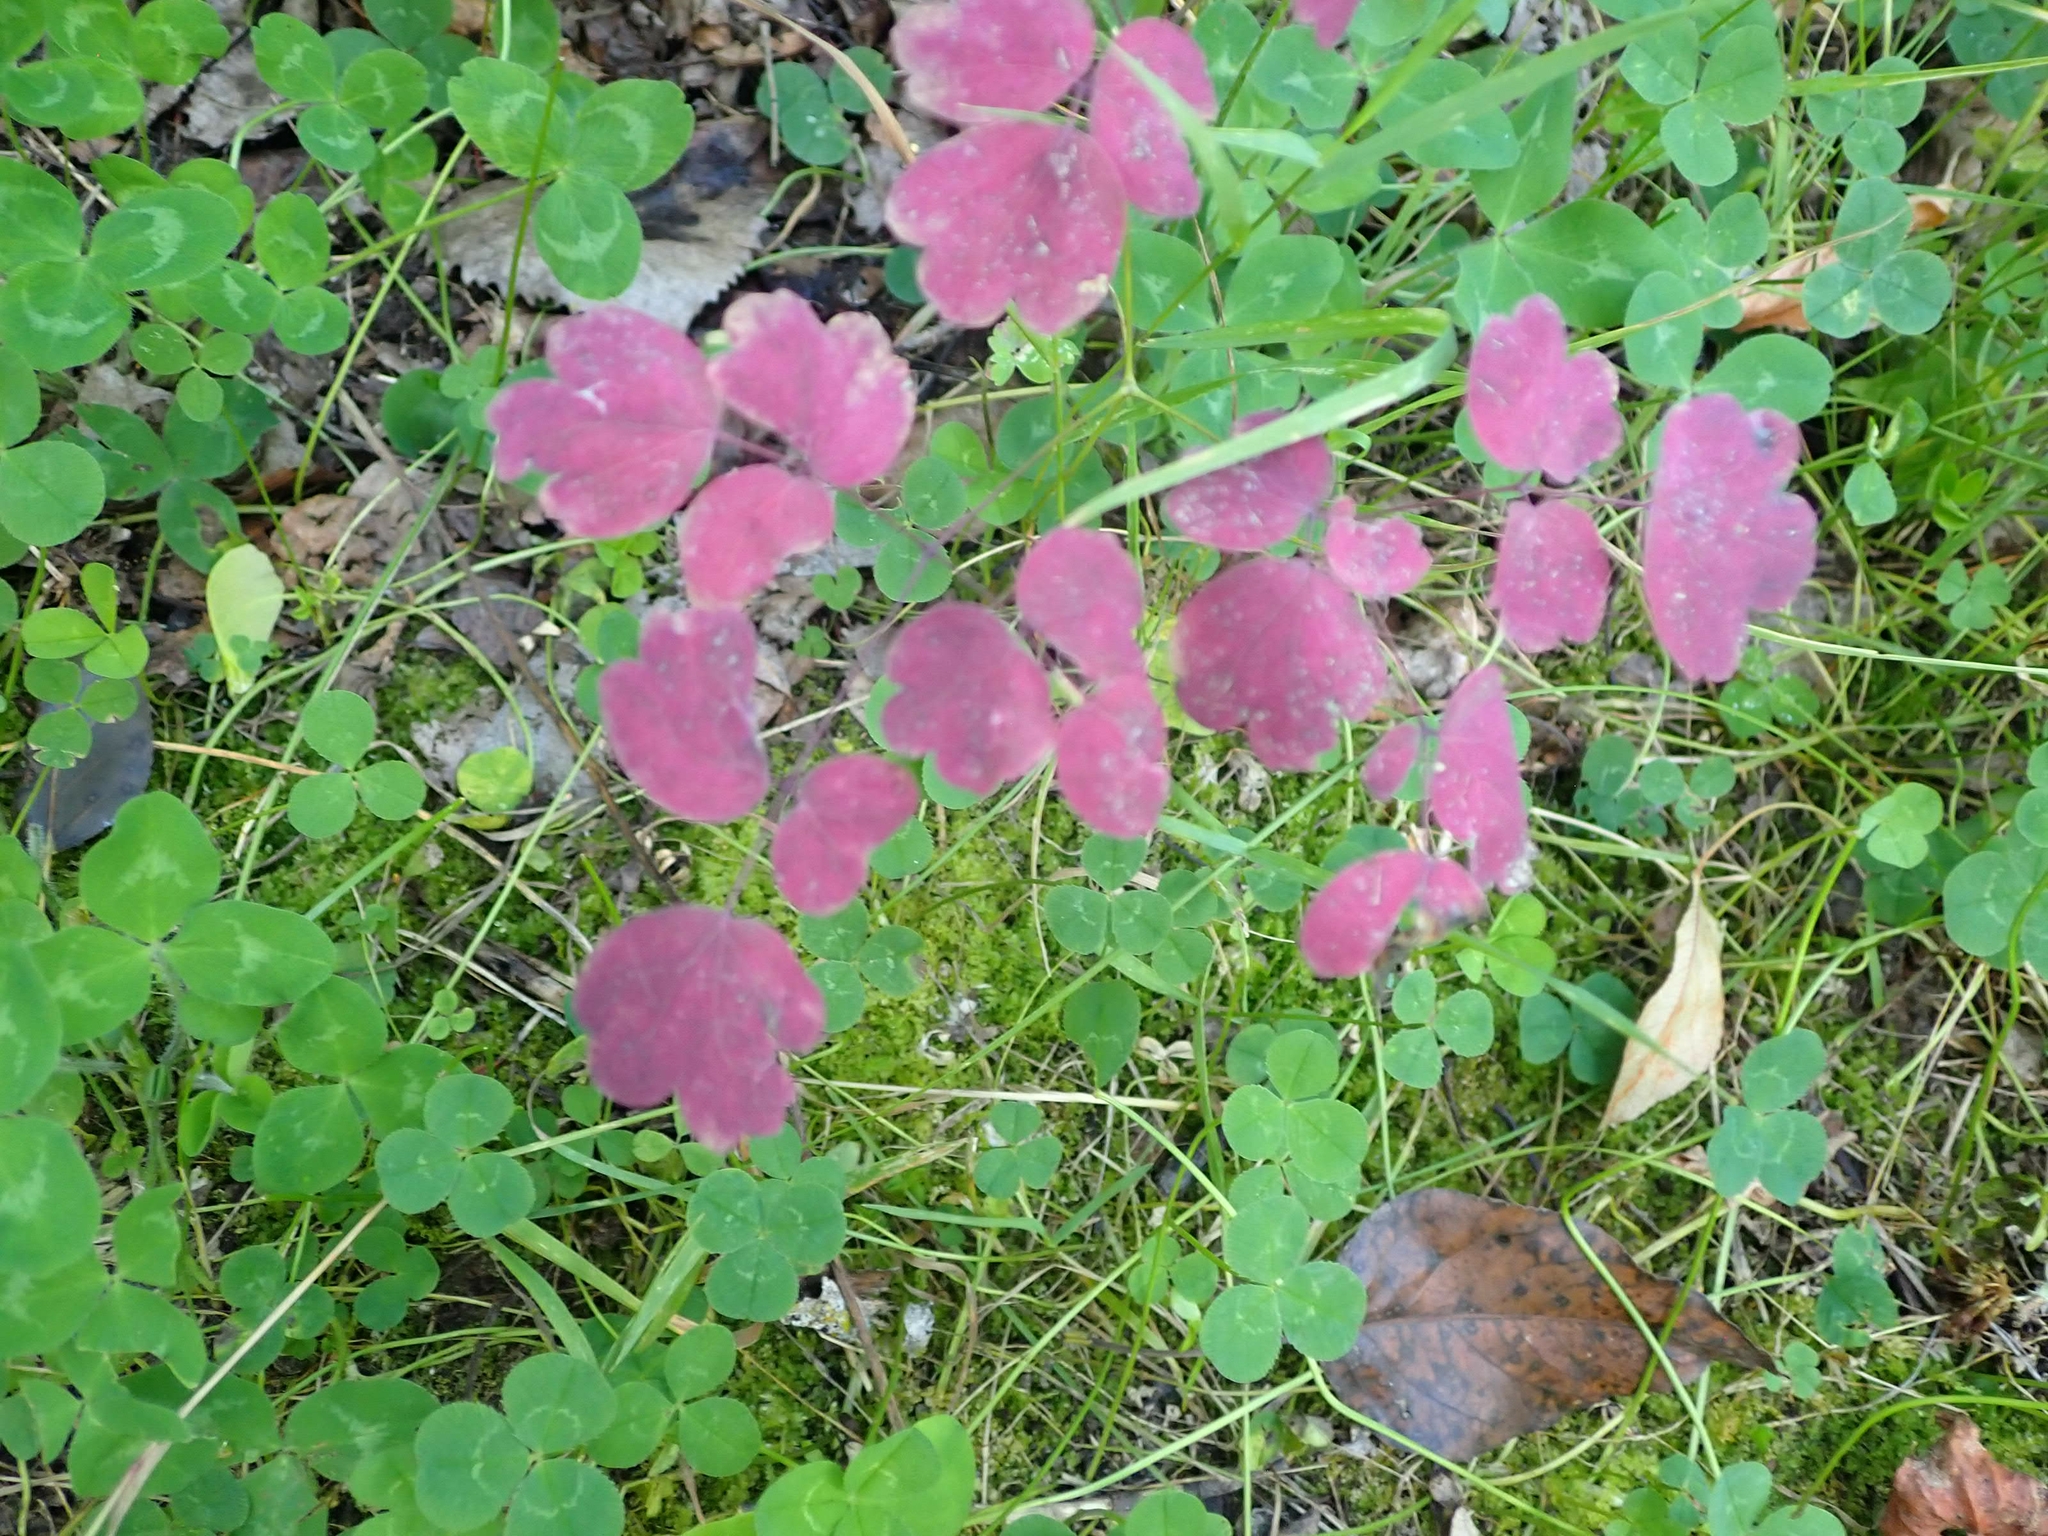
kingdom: Plantae
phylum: Tracheophyta
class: Magnoliopsida
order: Ranunculales
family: Ranunculaceae
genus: Thalictrum
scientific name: Thalictrum venulosum
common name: Early meadow-rue
